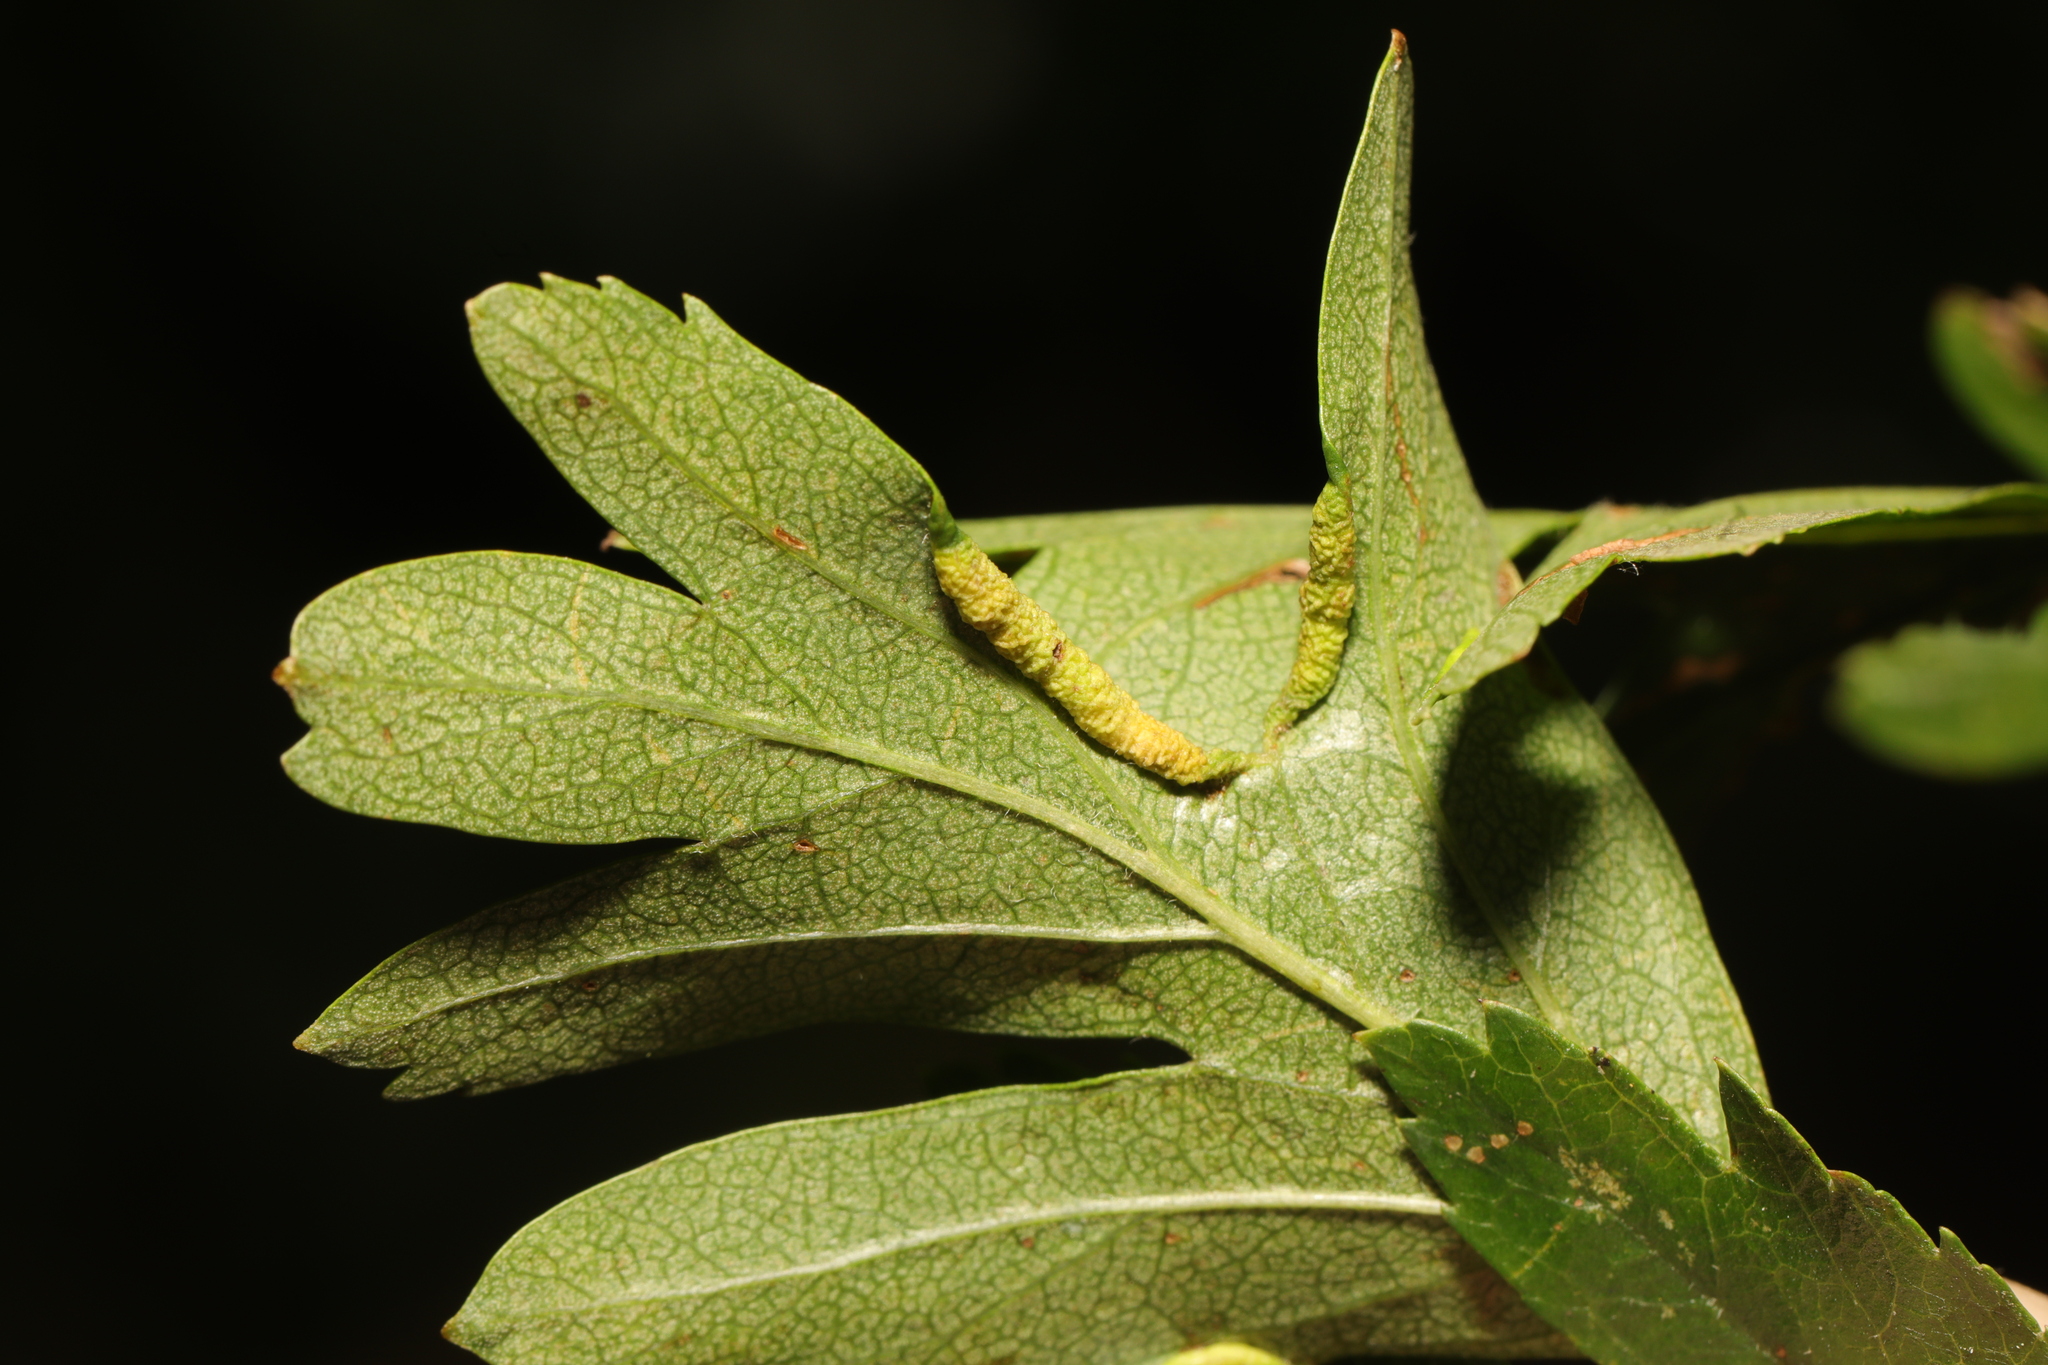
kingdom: Animalia
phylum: Arthropoda
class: Arachnida
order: Trombidiformes
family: Eriophyidae
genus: Phyllocoptes
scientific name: Phyllocoptes goniothorax
